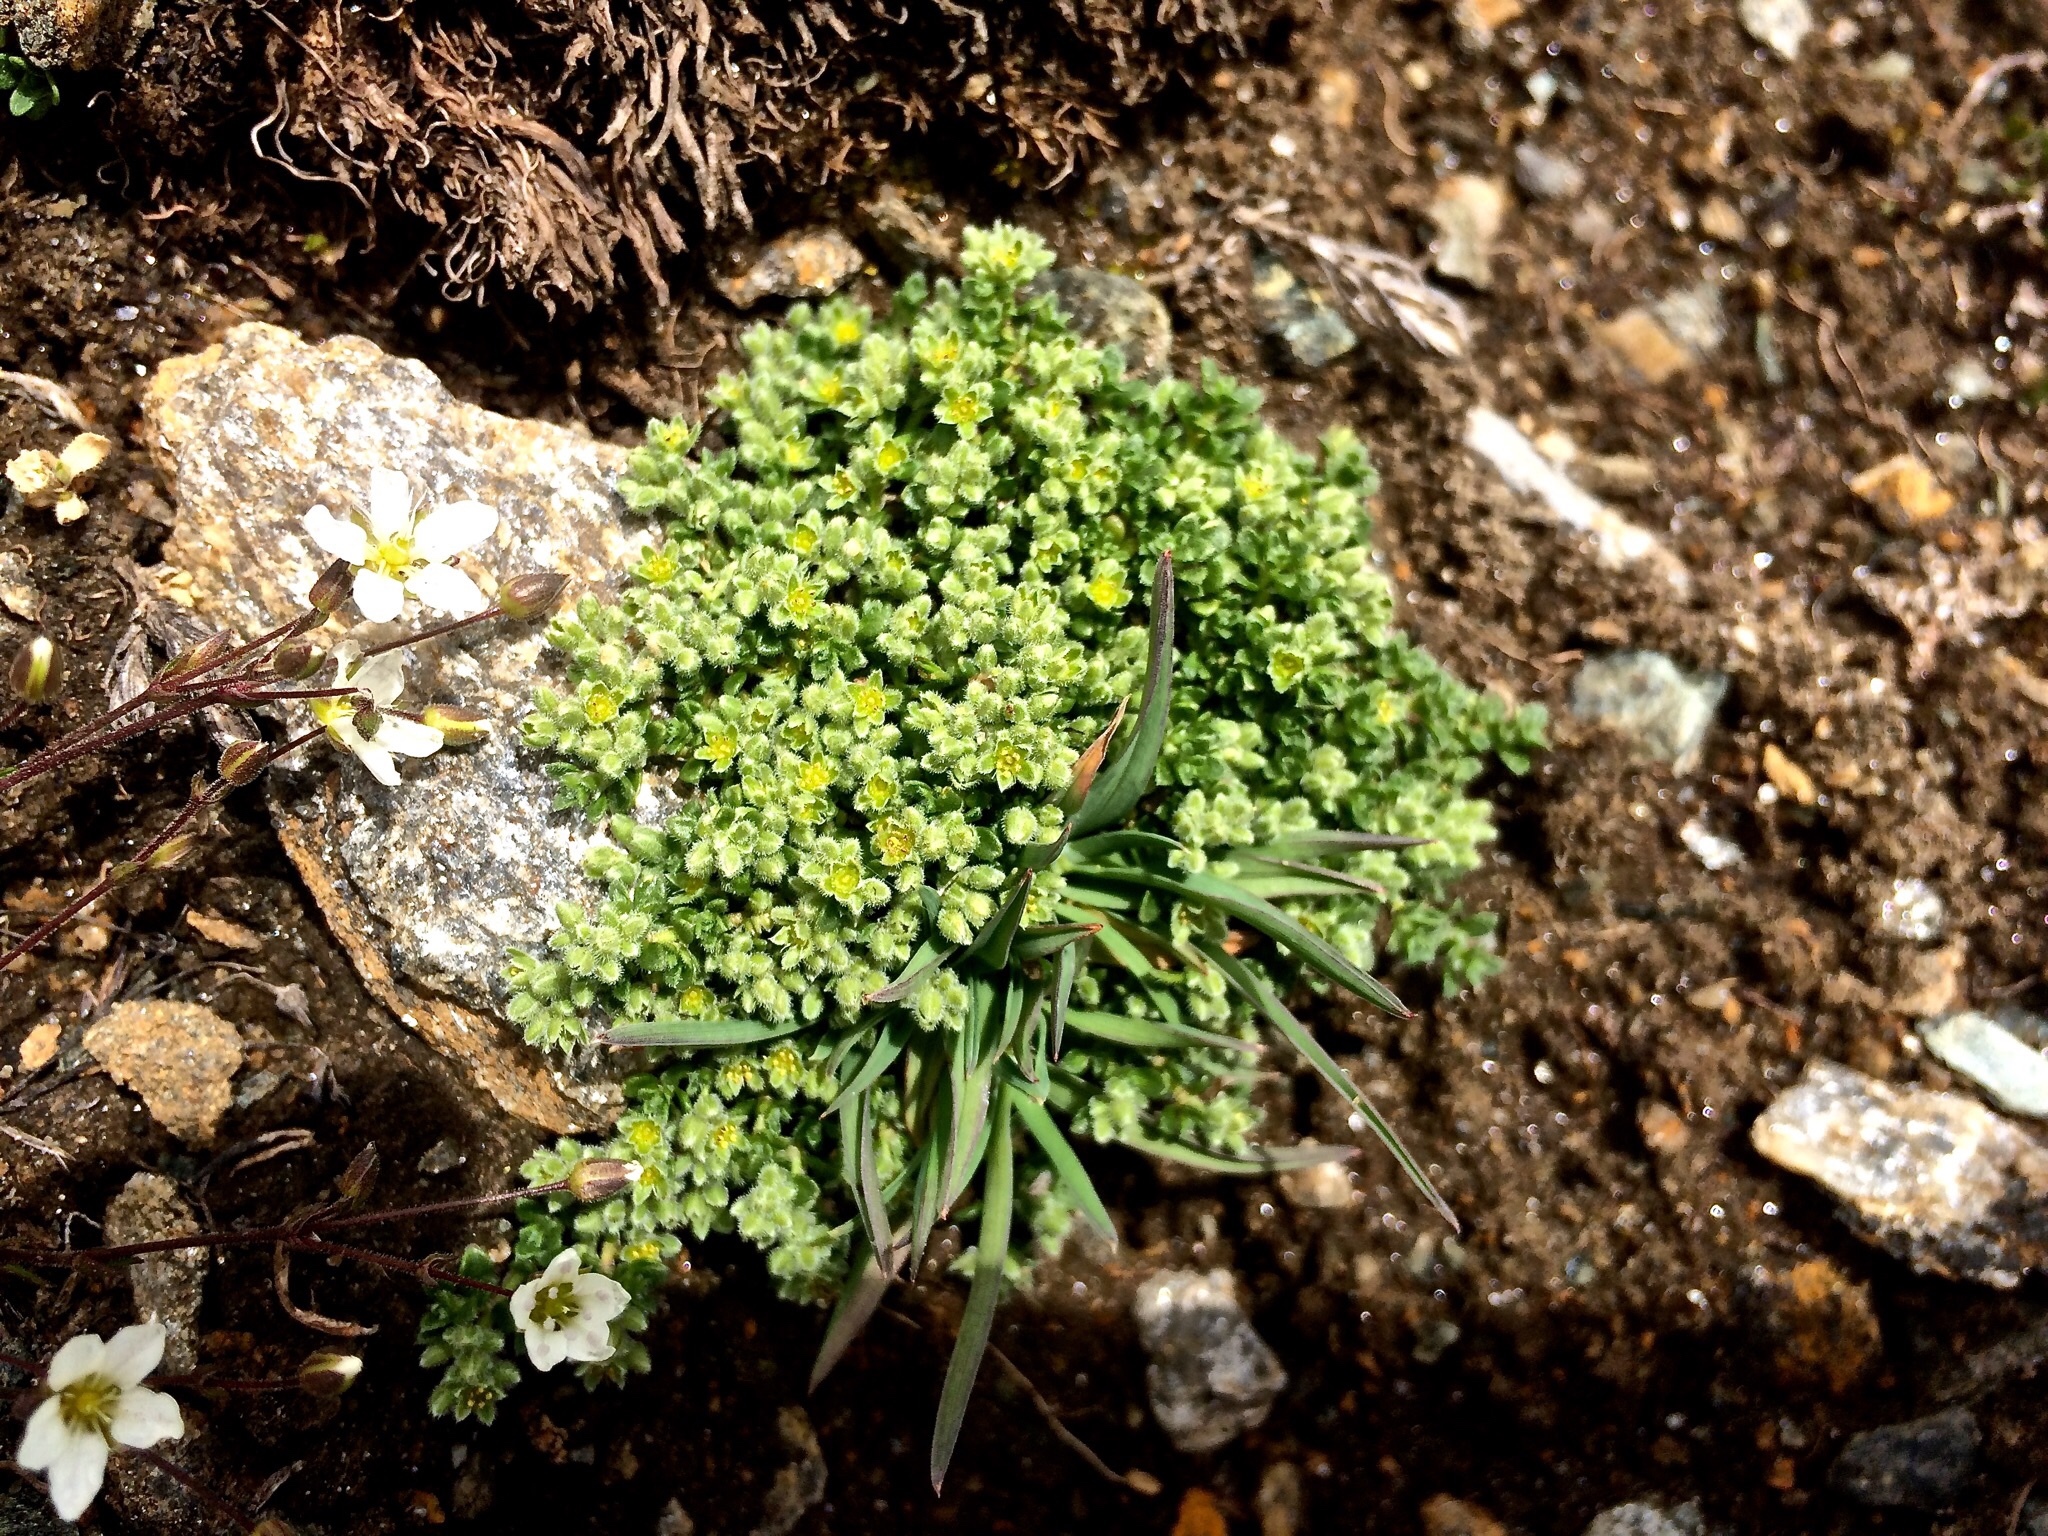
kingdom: Plantae
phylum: Tracheophyta
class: Magnoliopsida
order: Caryophyllales
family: Caryophyllaceae
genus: Herniaria
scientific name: Herniaria alpina
